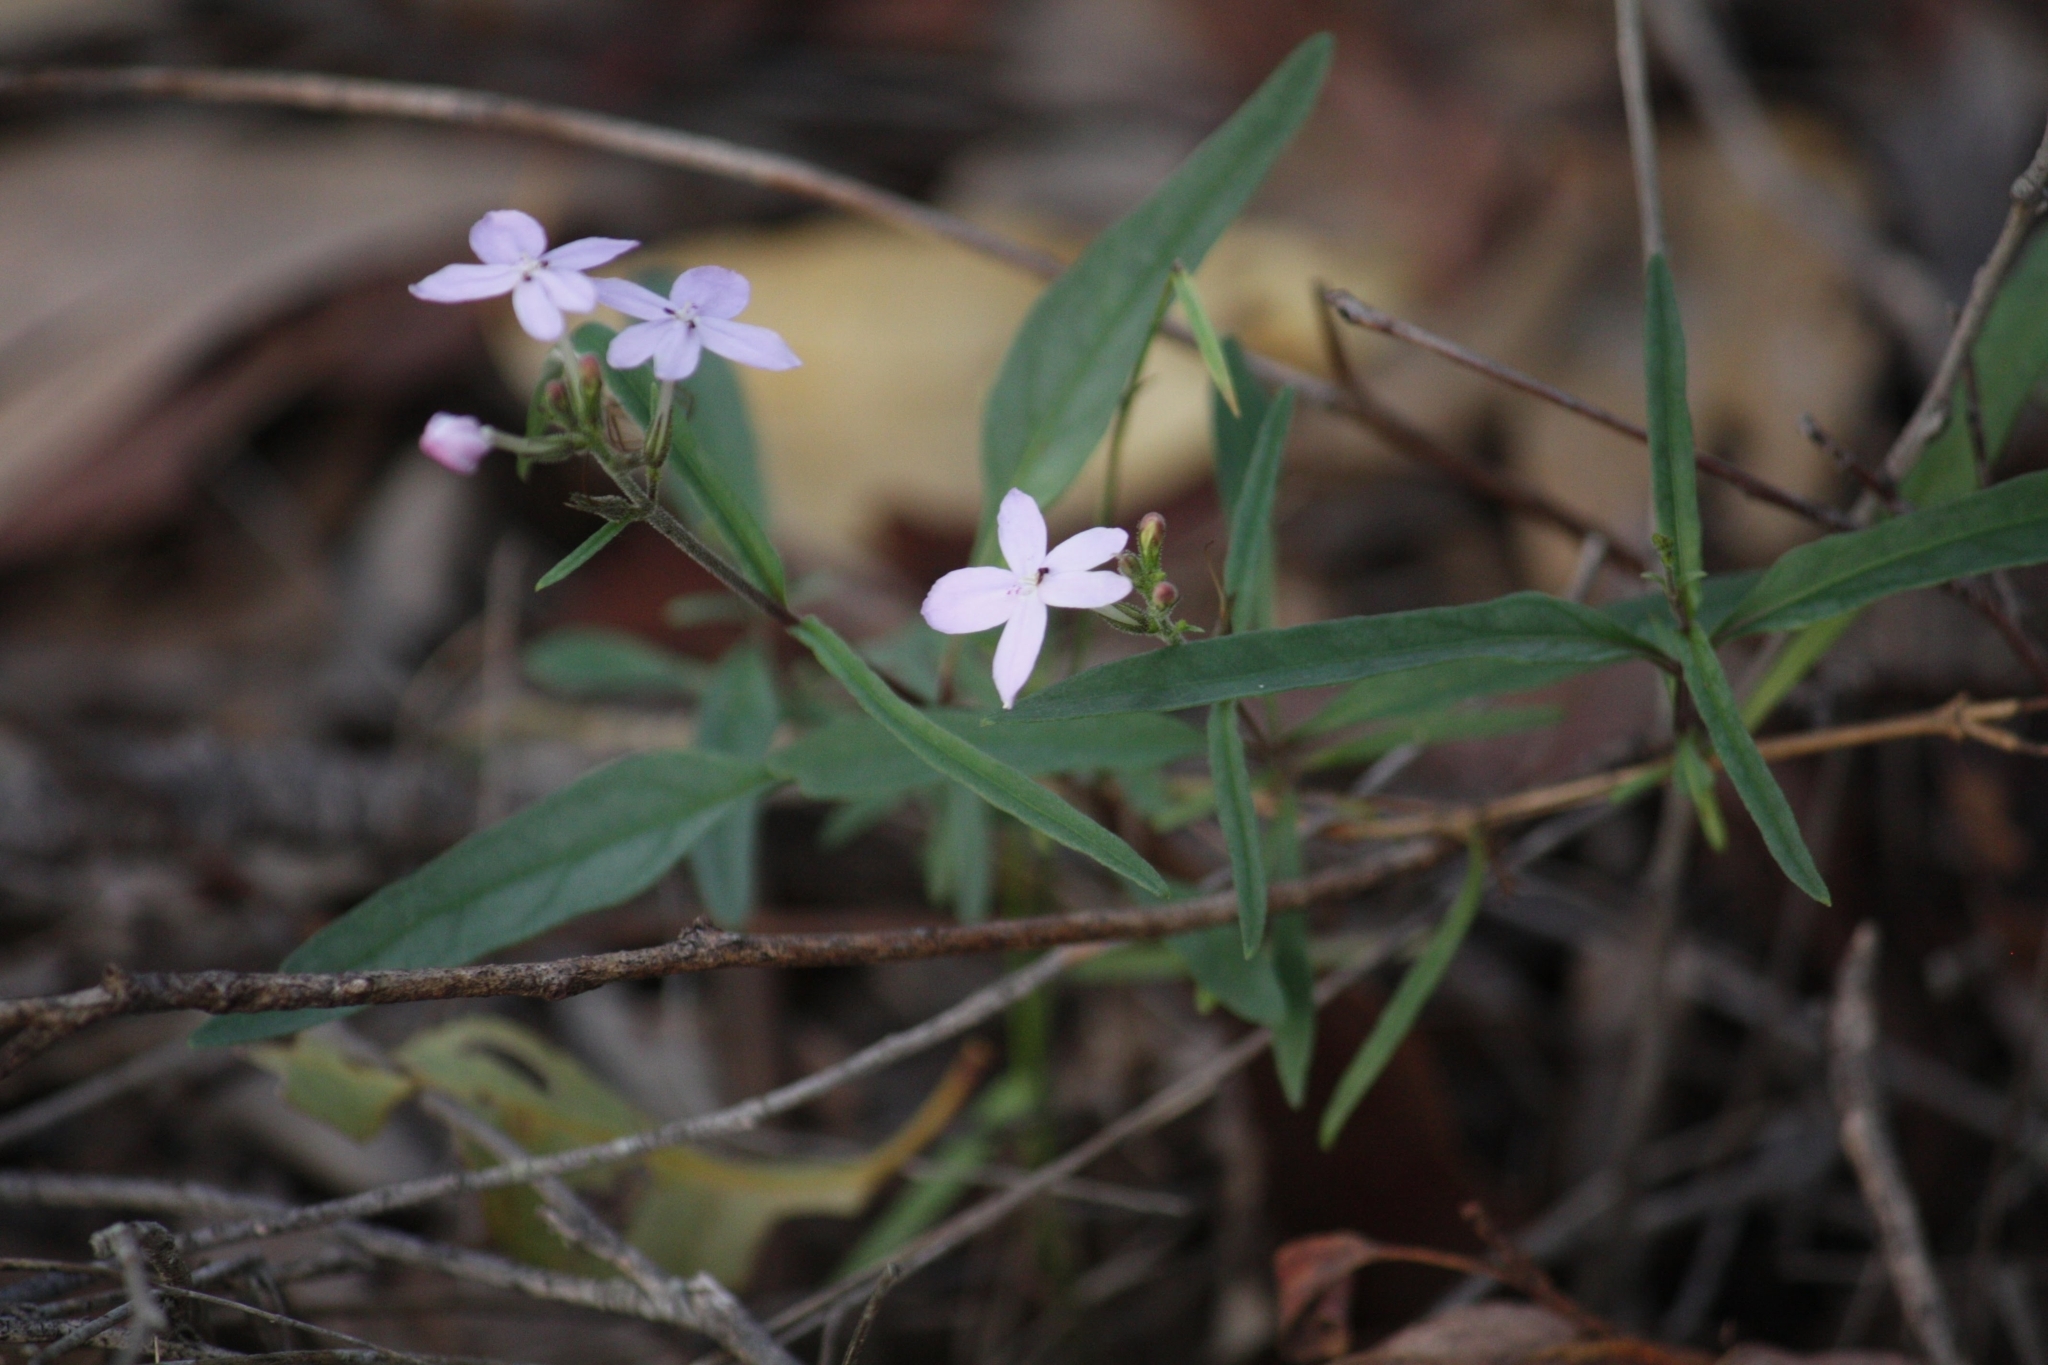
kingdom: Plantae
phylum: Tracheophyta
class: Magnoliopsida
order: Lamiales
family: Acanthaceae
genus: Pseuderanthemum
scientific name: Pseuderanthemum variabile
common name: Night and afternoon
